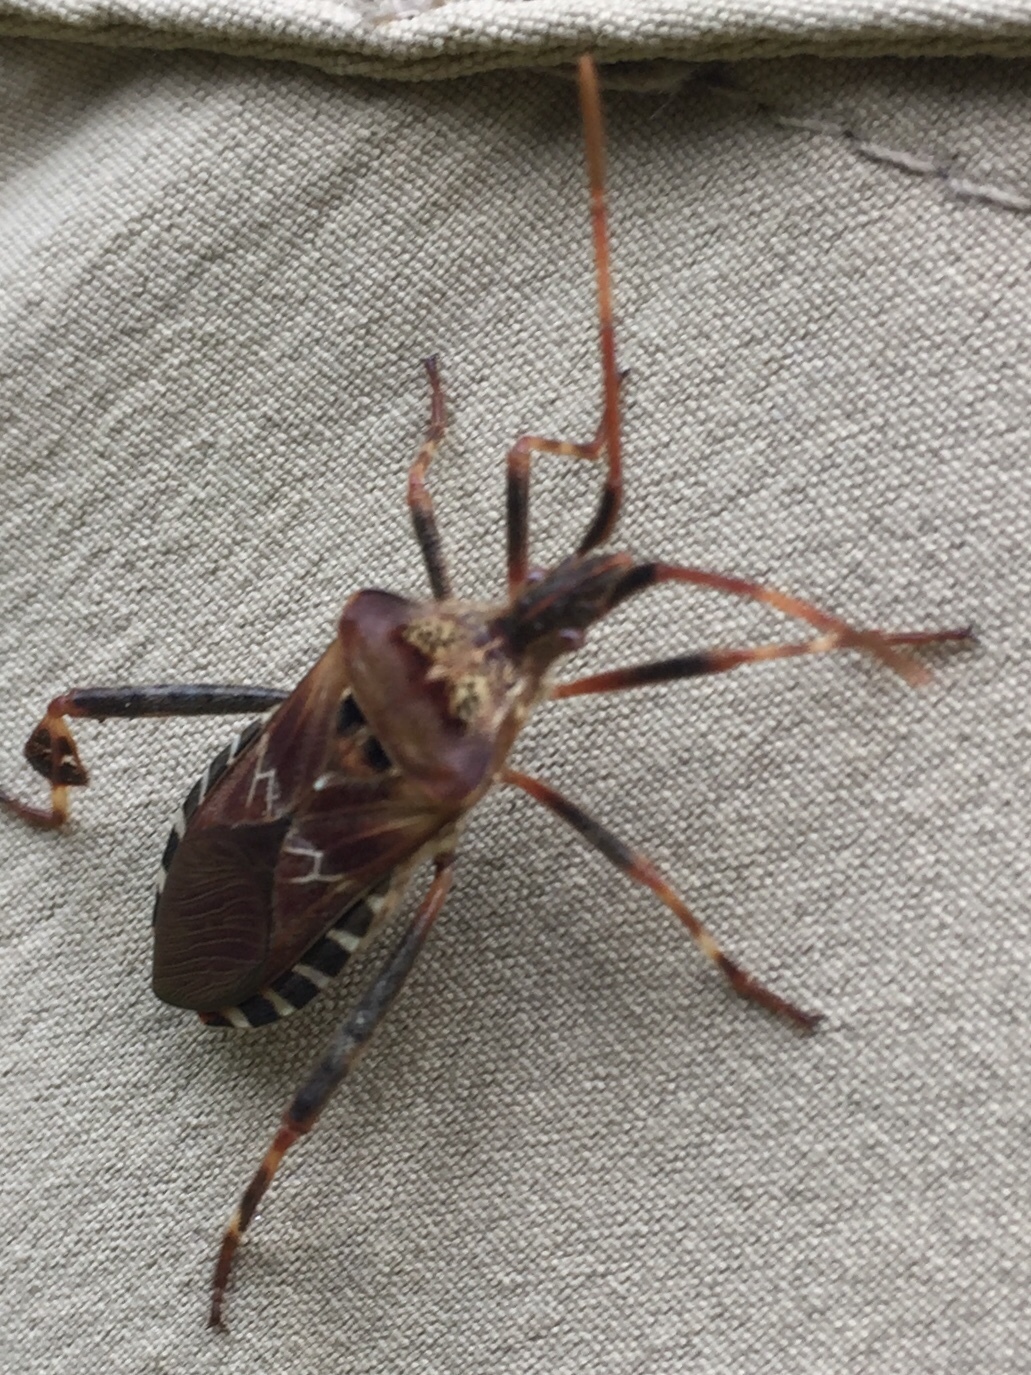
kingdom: Animalia
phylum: Arthropoda
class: Insecta
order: Hemiptera
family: Coreidae
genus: Leptoglossus
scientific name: Leptoglossus occidentalis
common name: Western conifer-seed bug
